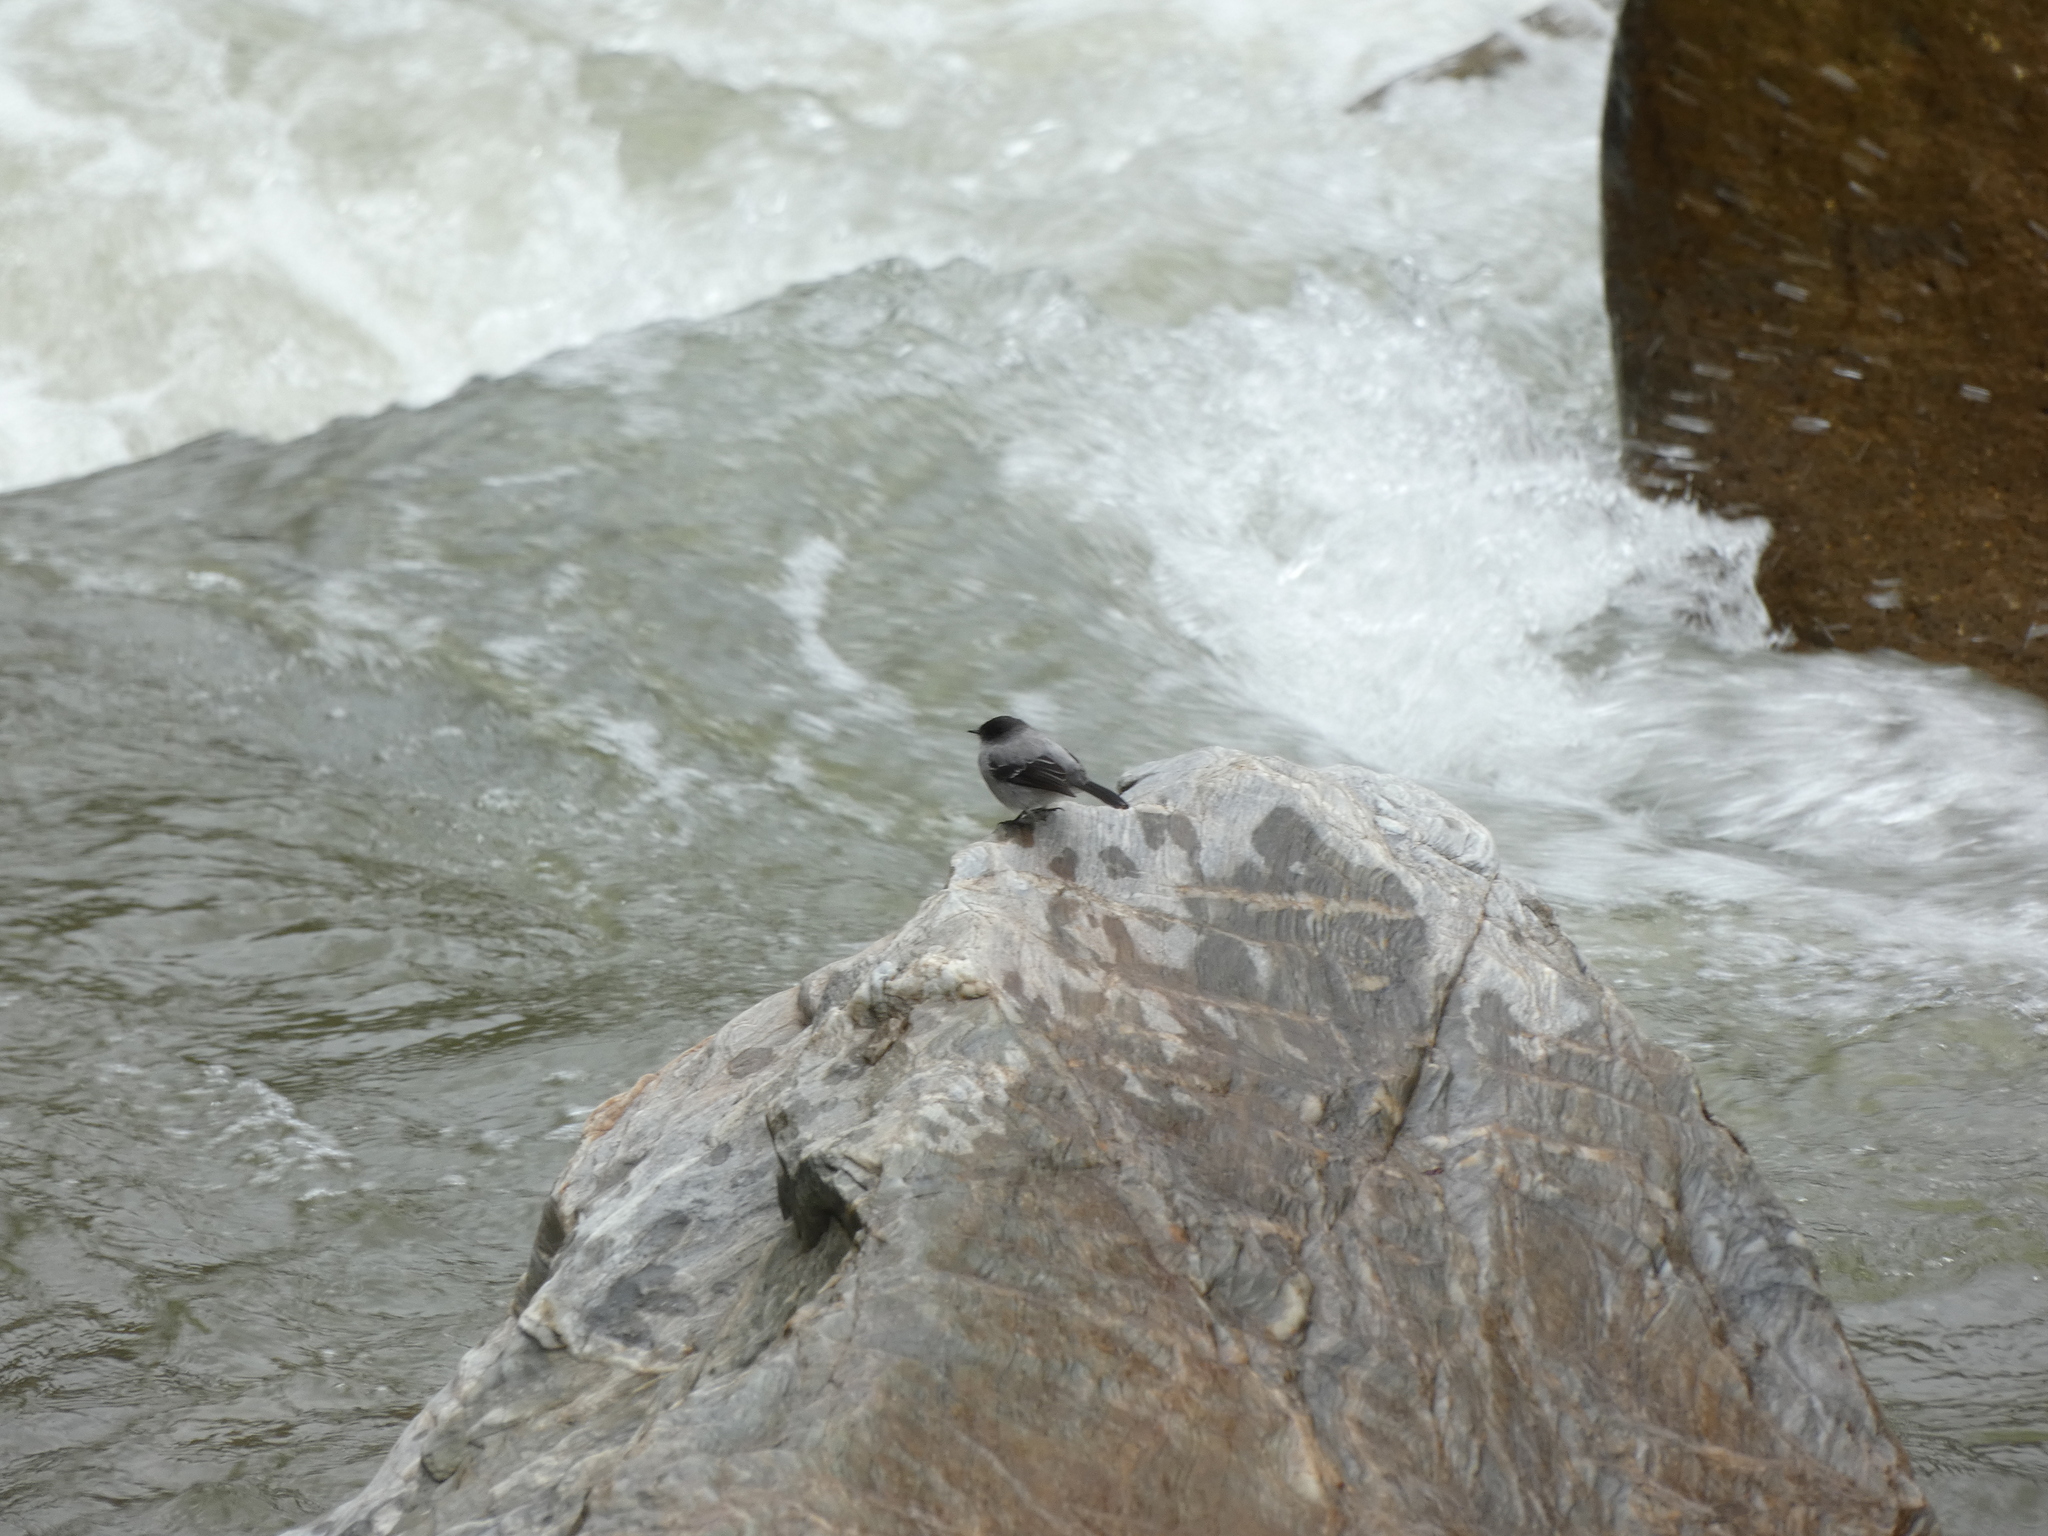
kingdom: Animalia
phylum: Chordata
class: Aves
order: Passeriformes
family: Tyrannidae
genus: Serpophaga
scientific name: Serpophaga cinerea
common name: Torrent tyrannulet
